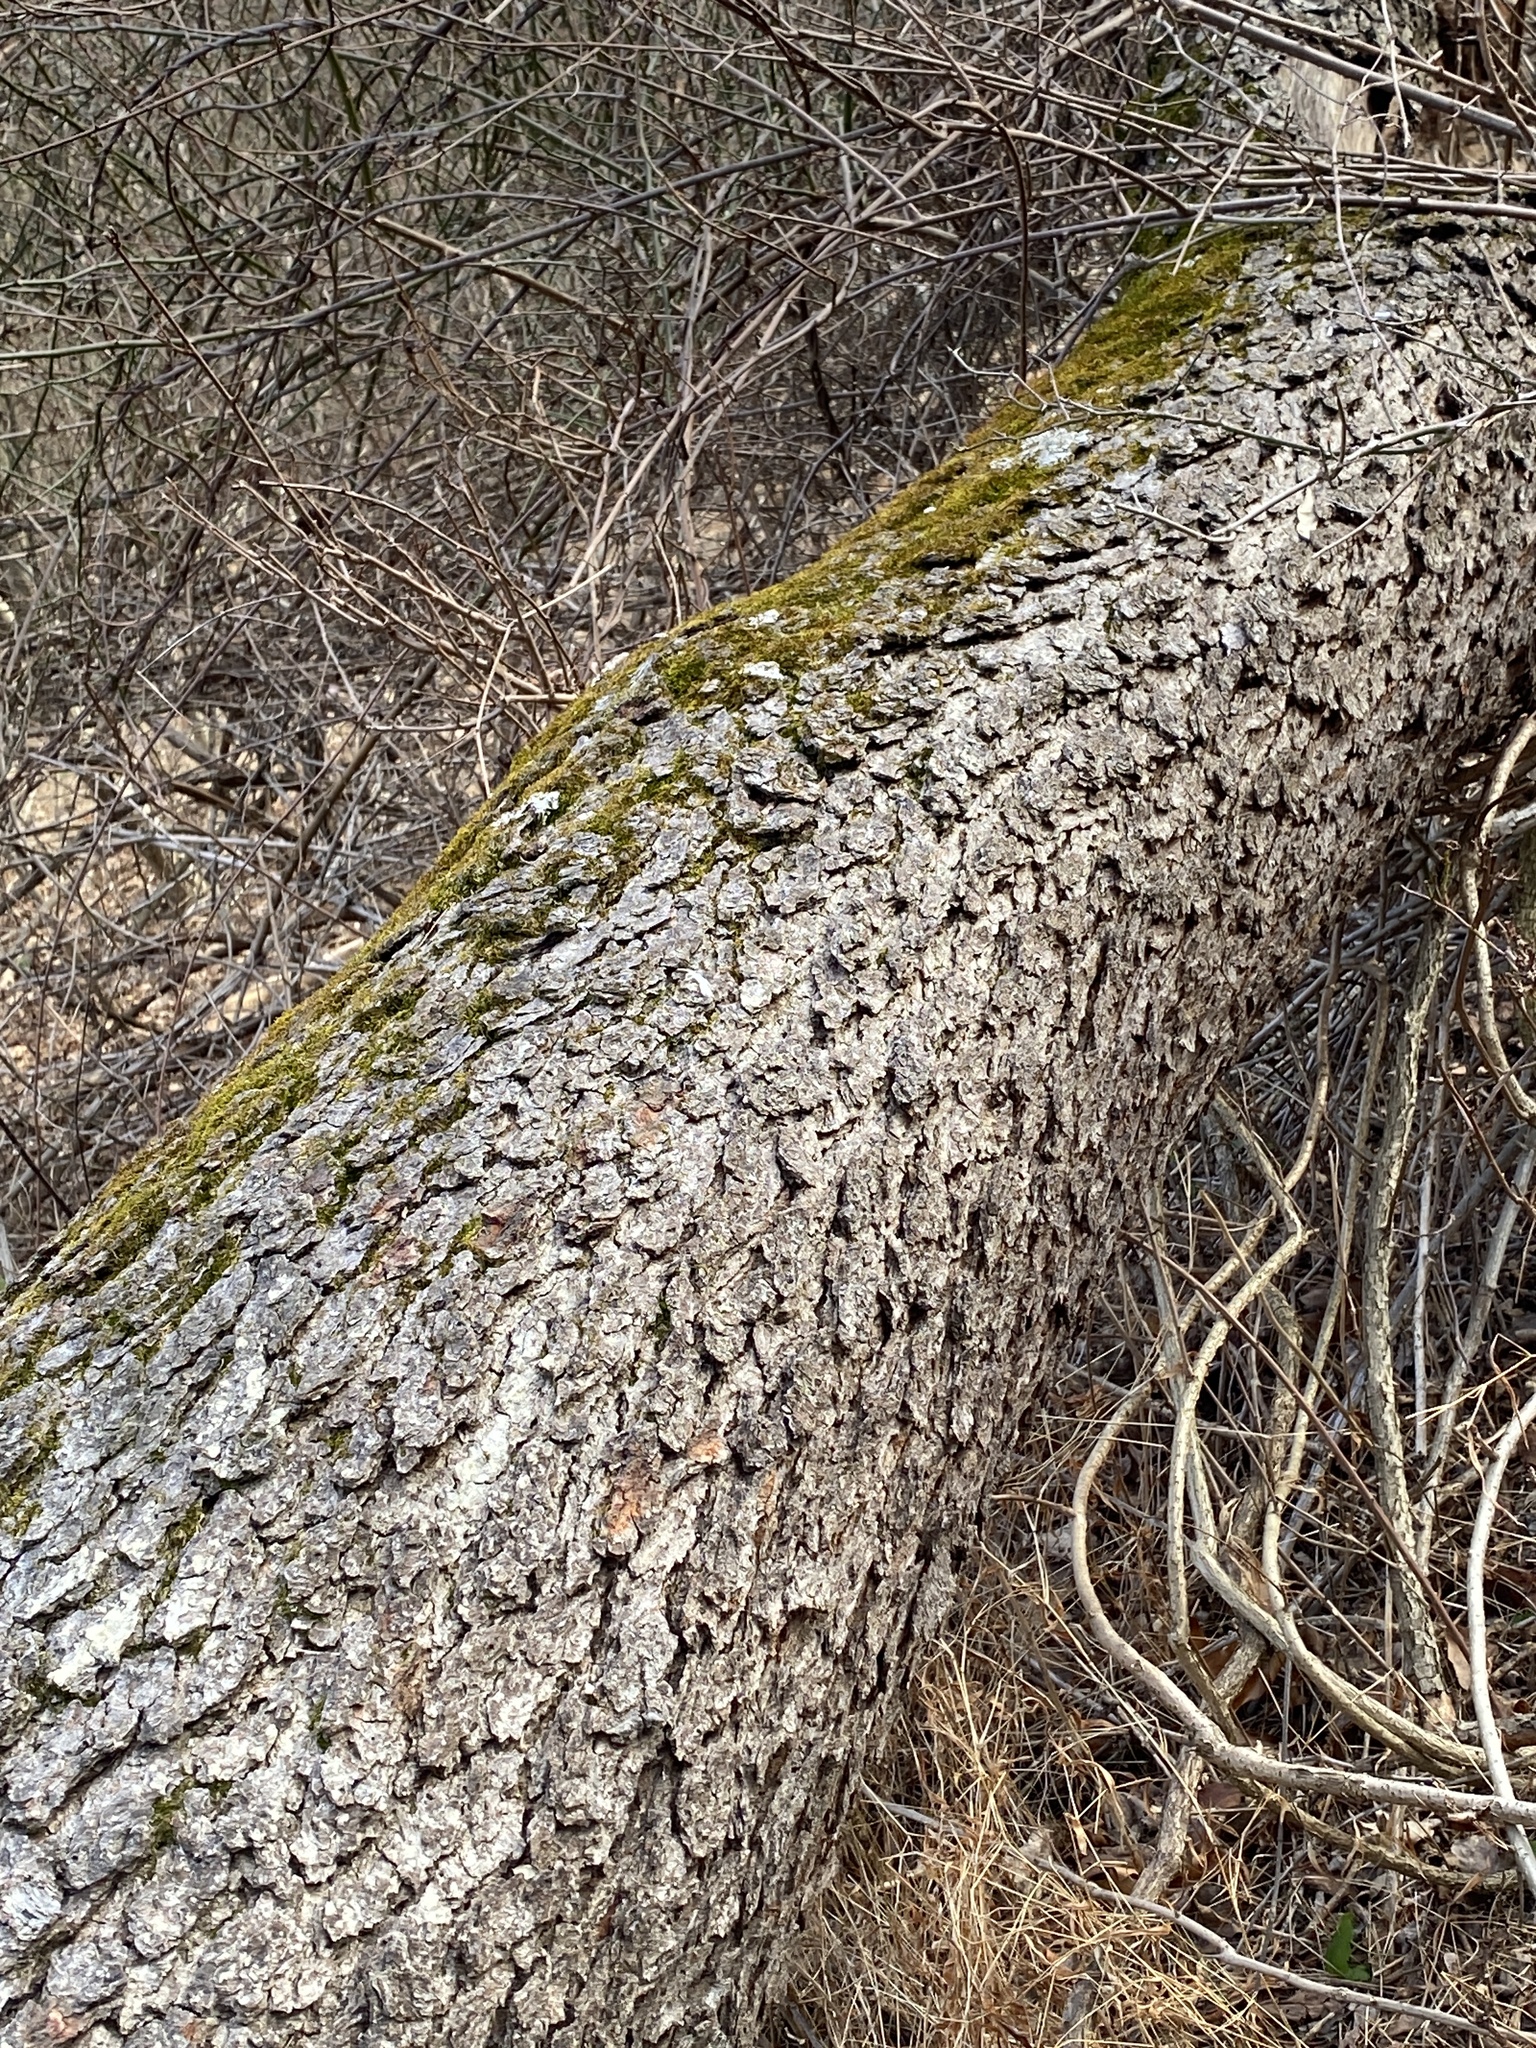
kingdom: Plantae
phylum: Tracheophyta
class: Magnoliopsida
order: Rosales
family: Rosaceae
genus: Prunus
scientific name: Prunus serotina
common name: Black cherry
